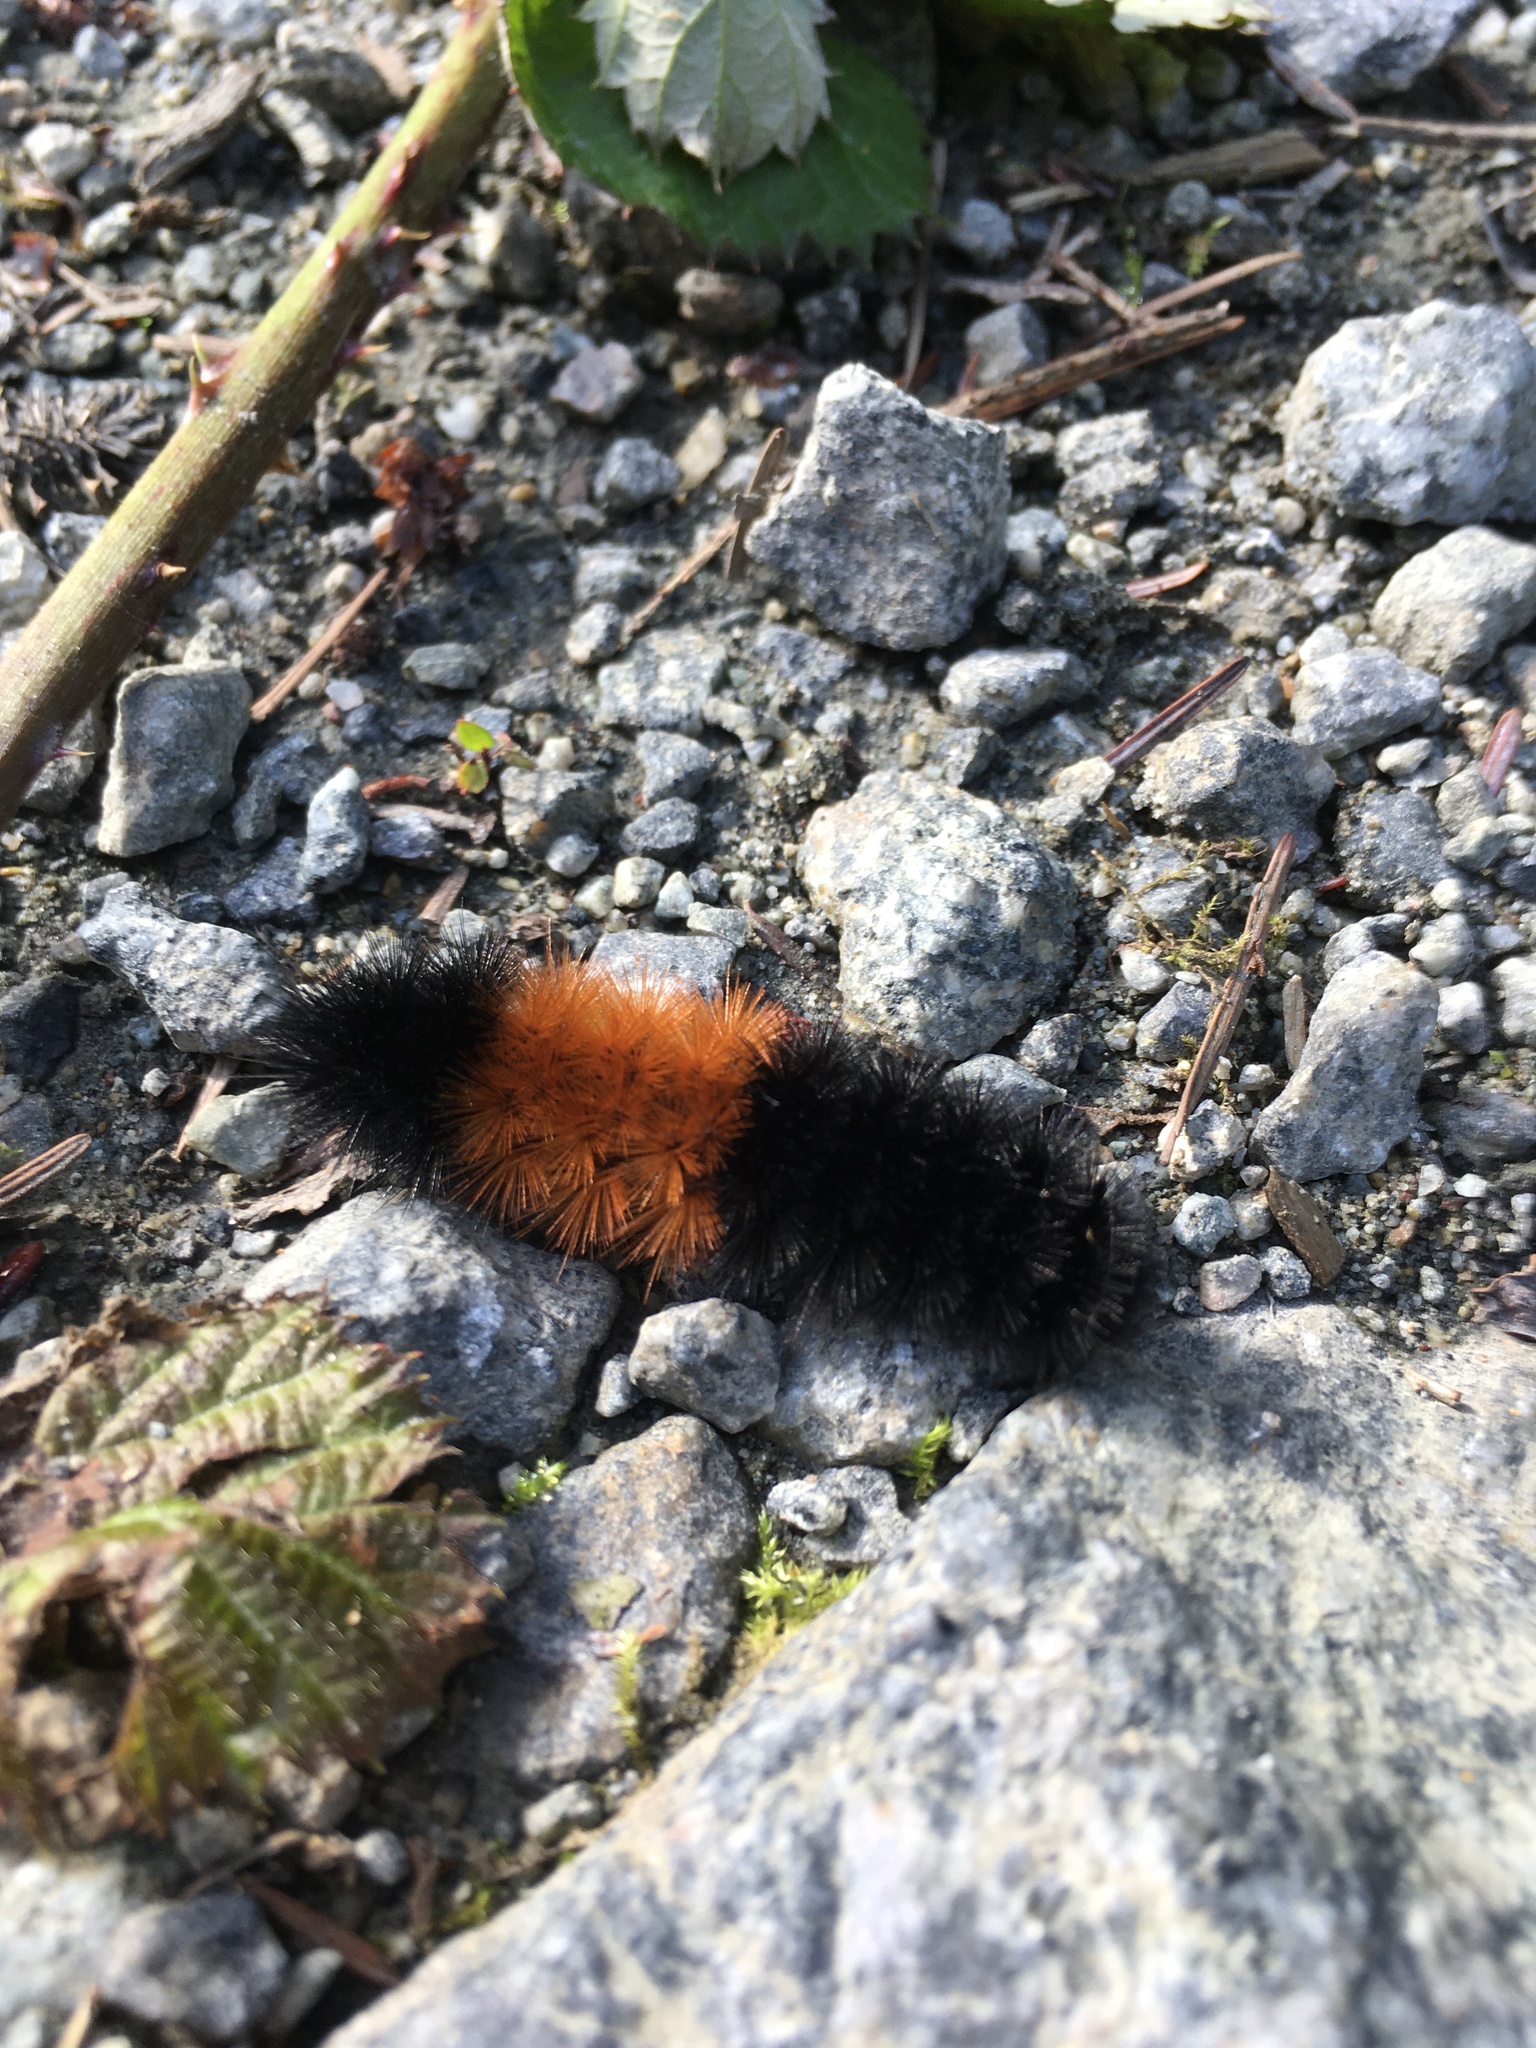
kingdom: Animalia
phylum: Arthropoda
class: Insecta
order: Lepidoptera
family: Erebidae
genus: Pyrrharctia
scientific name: Pyrrharctia isabella
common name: Isabella tiger moth
